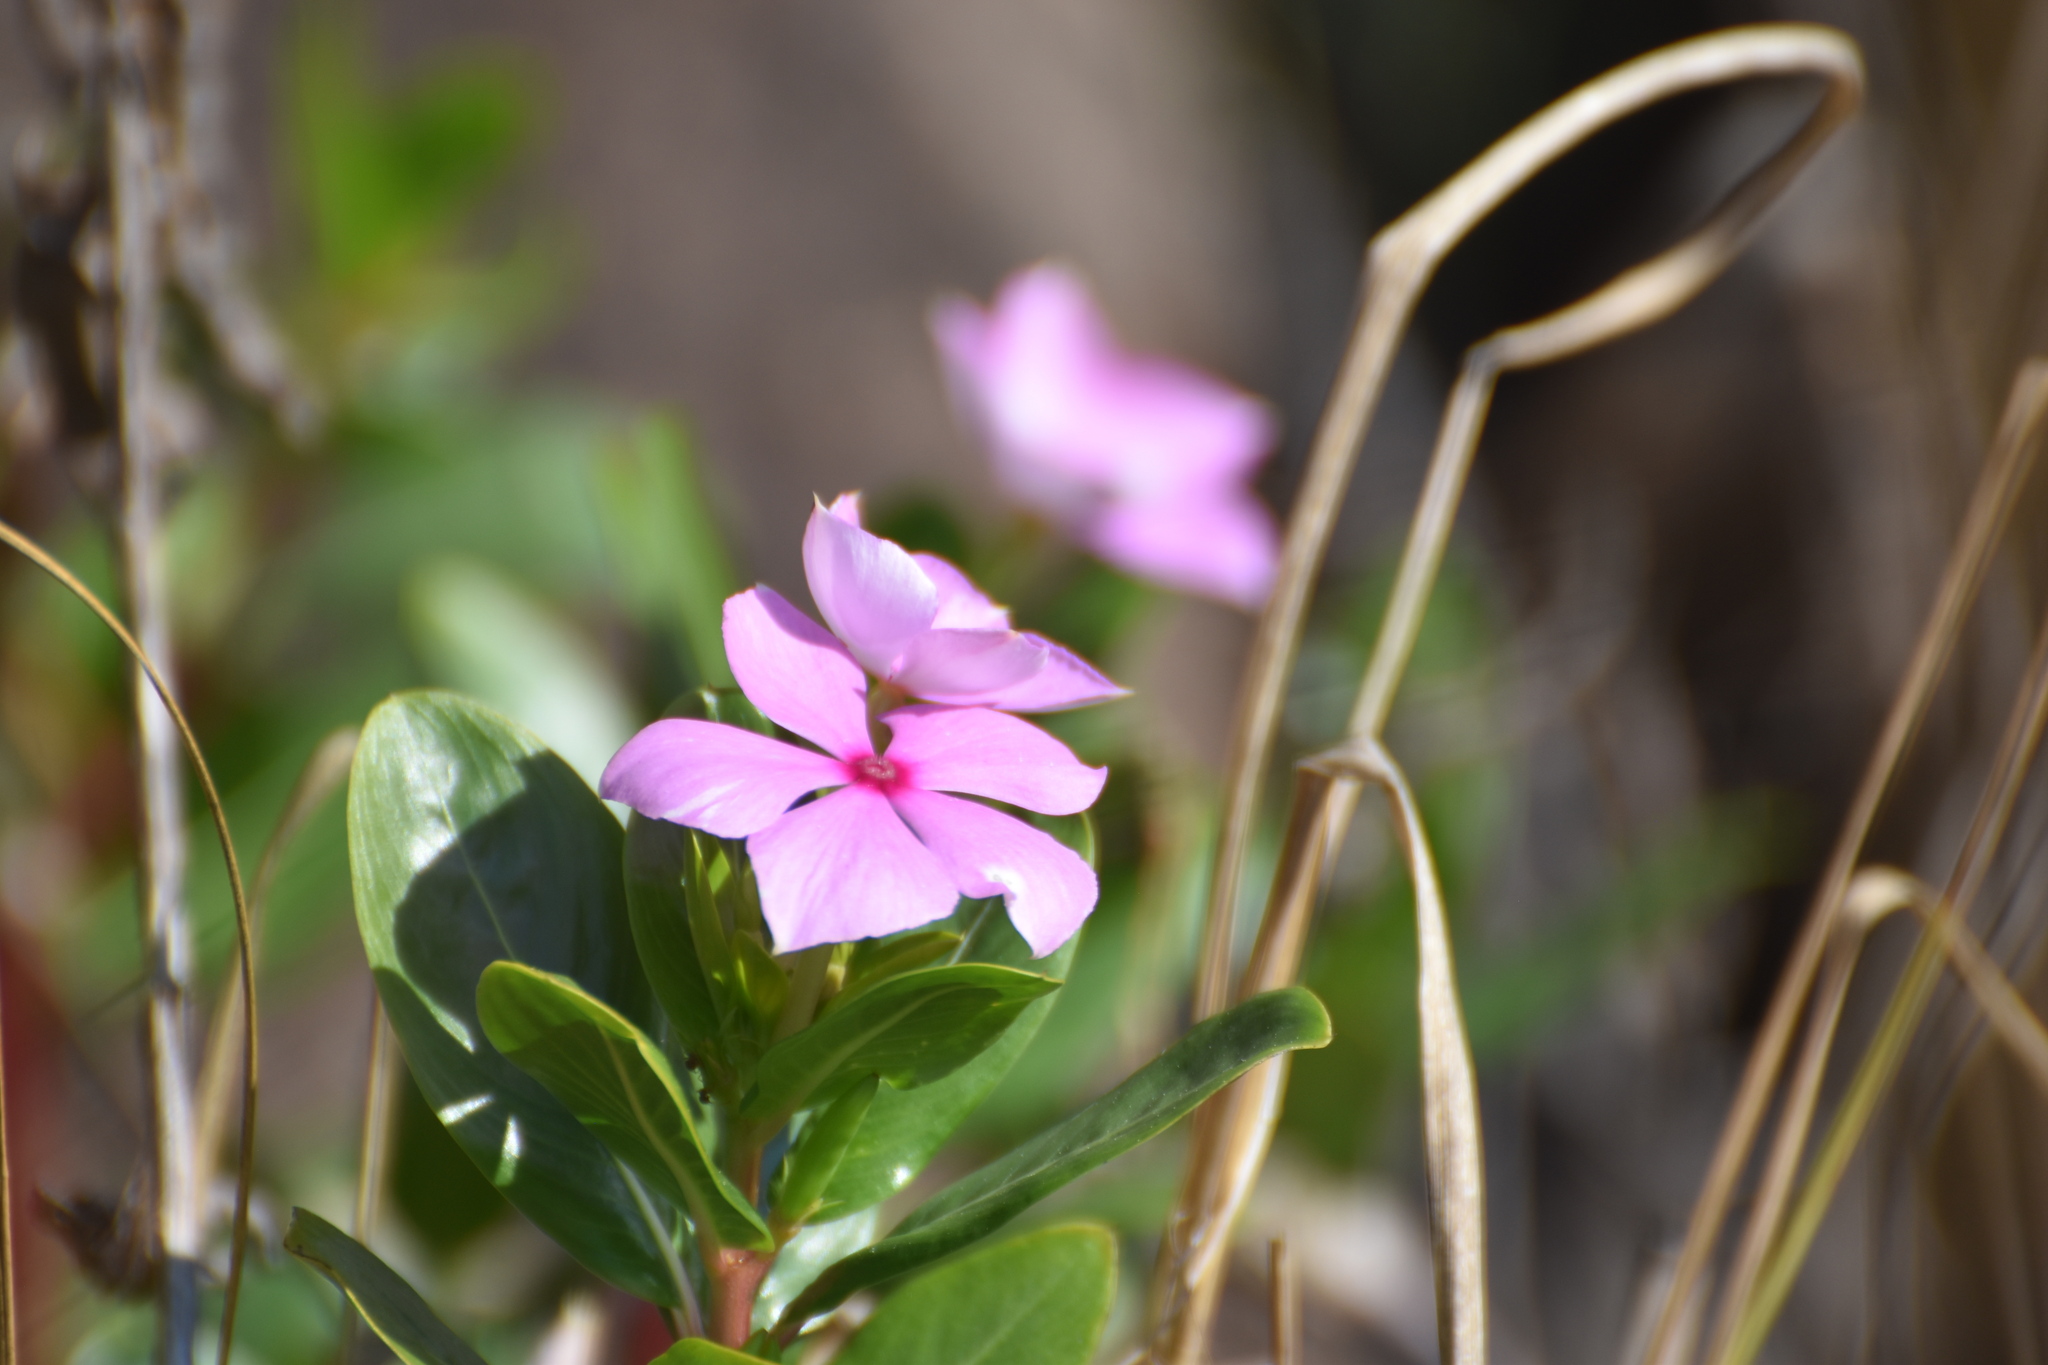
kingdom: Plantae
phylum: Tracheophyta
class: Magnoliopsida
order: Gentianales
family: Apocynaceae
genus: Catharanthus
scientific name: Catharanthus roseus
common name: Madagascar periwinkle
